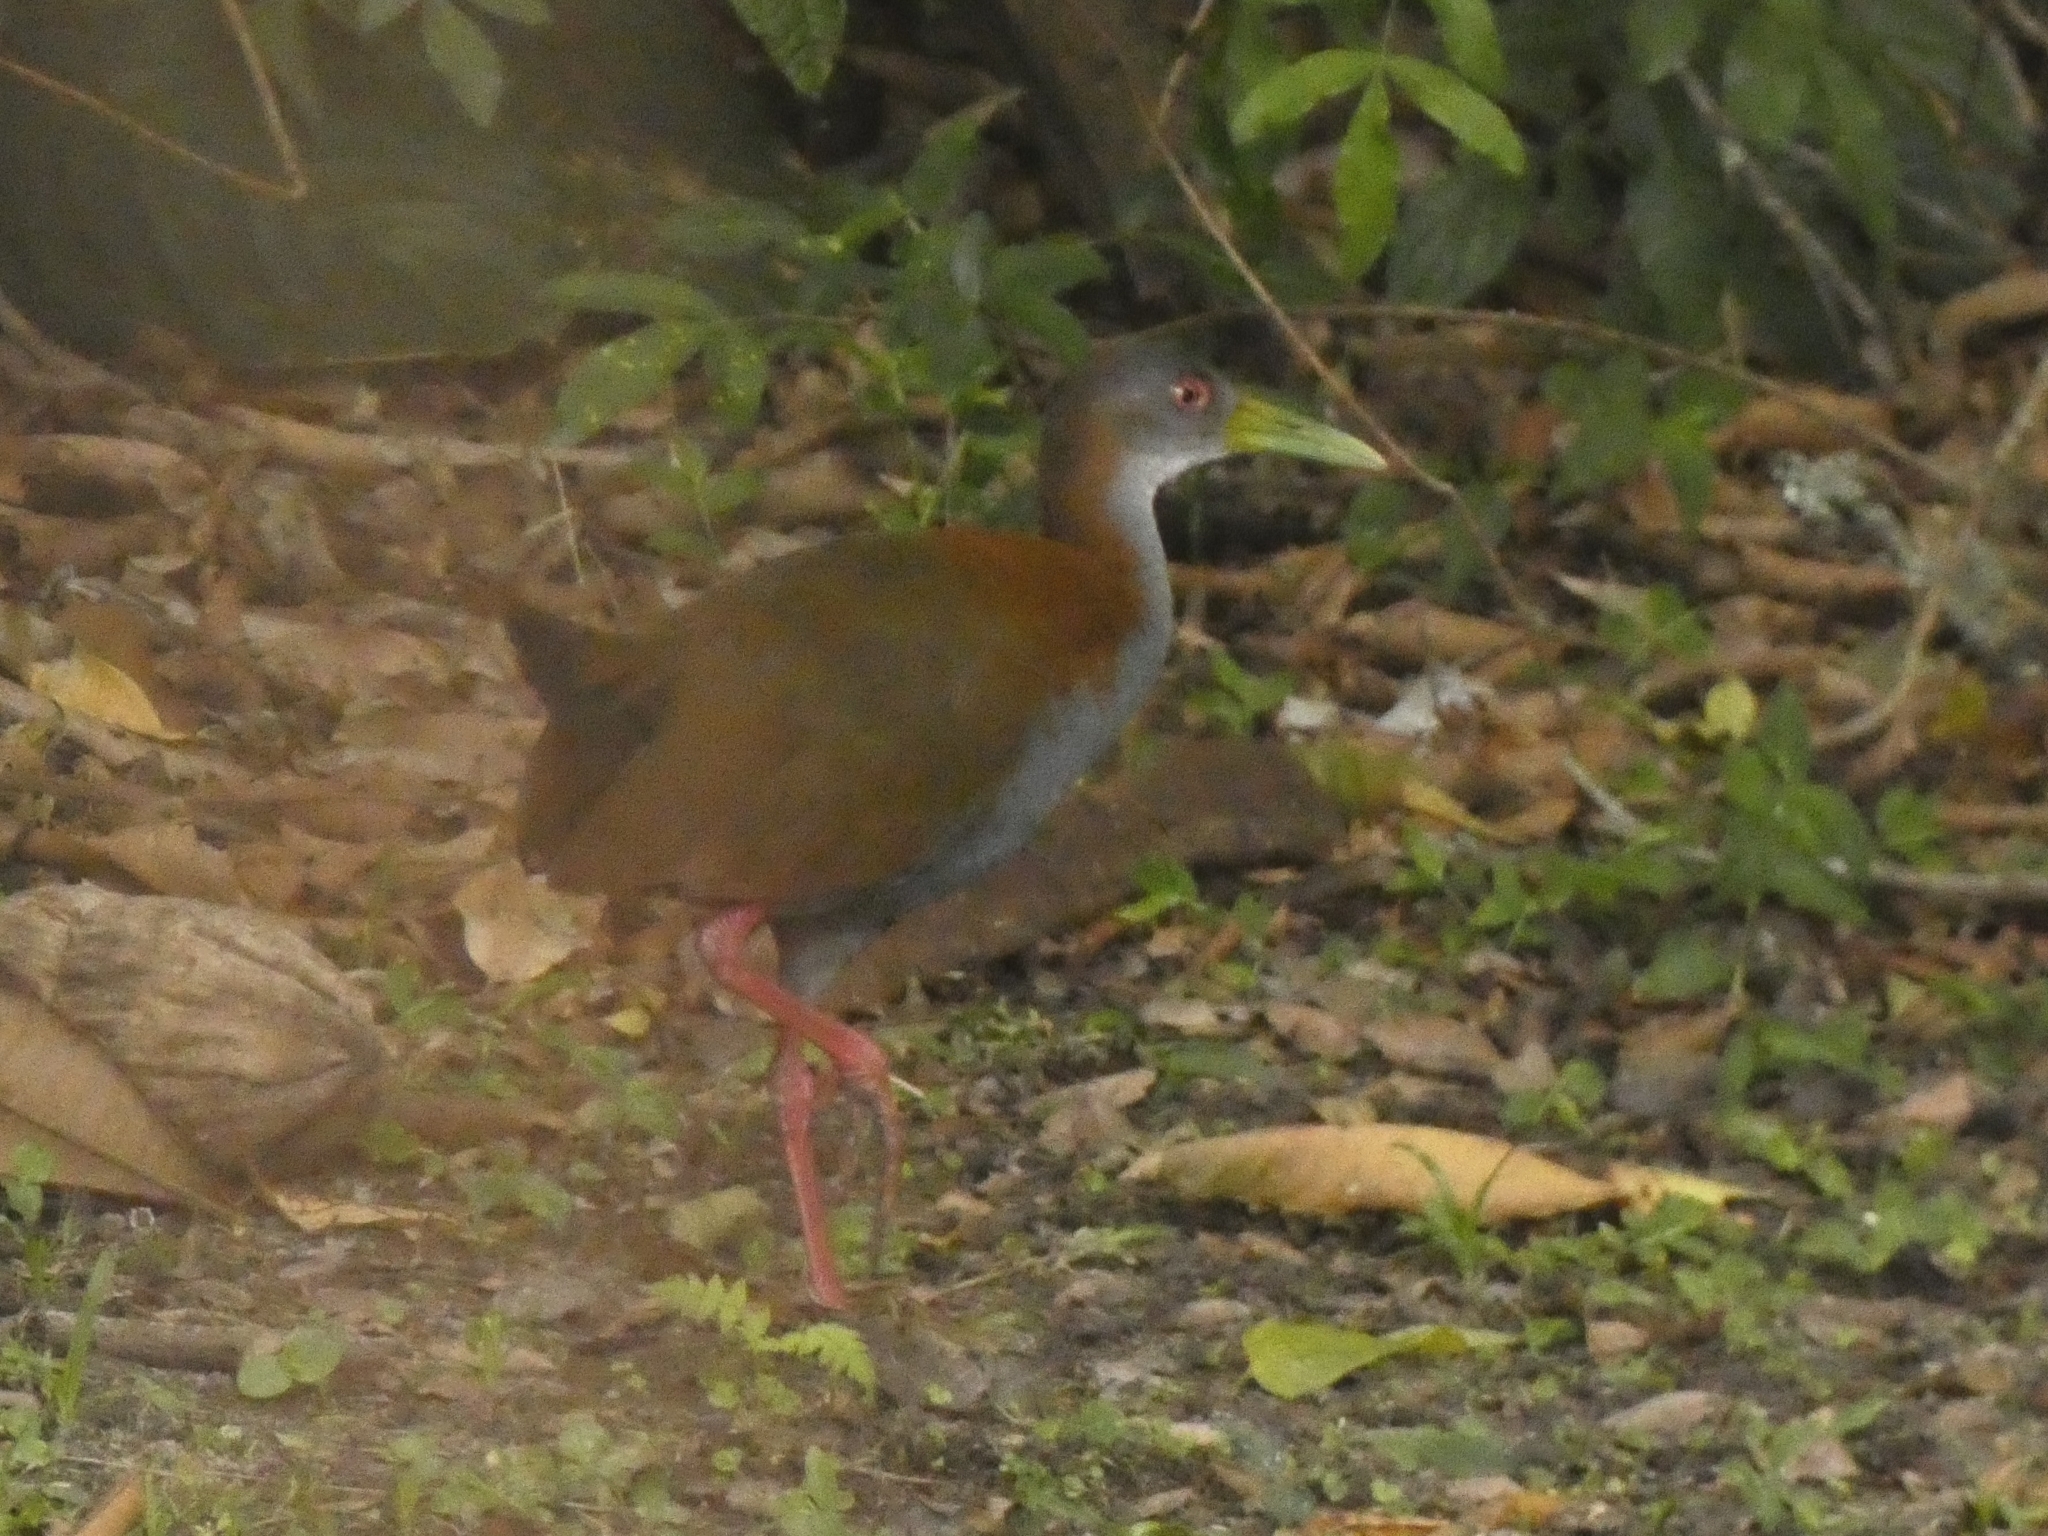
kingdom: Animalia
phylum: Chordata
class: Aves
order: Gruiformes
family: Rallidae
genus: Aramides
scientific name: Aramides saracura
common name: Slaty-breasted wood rail
